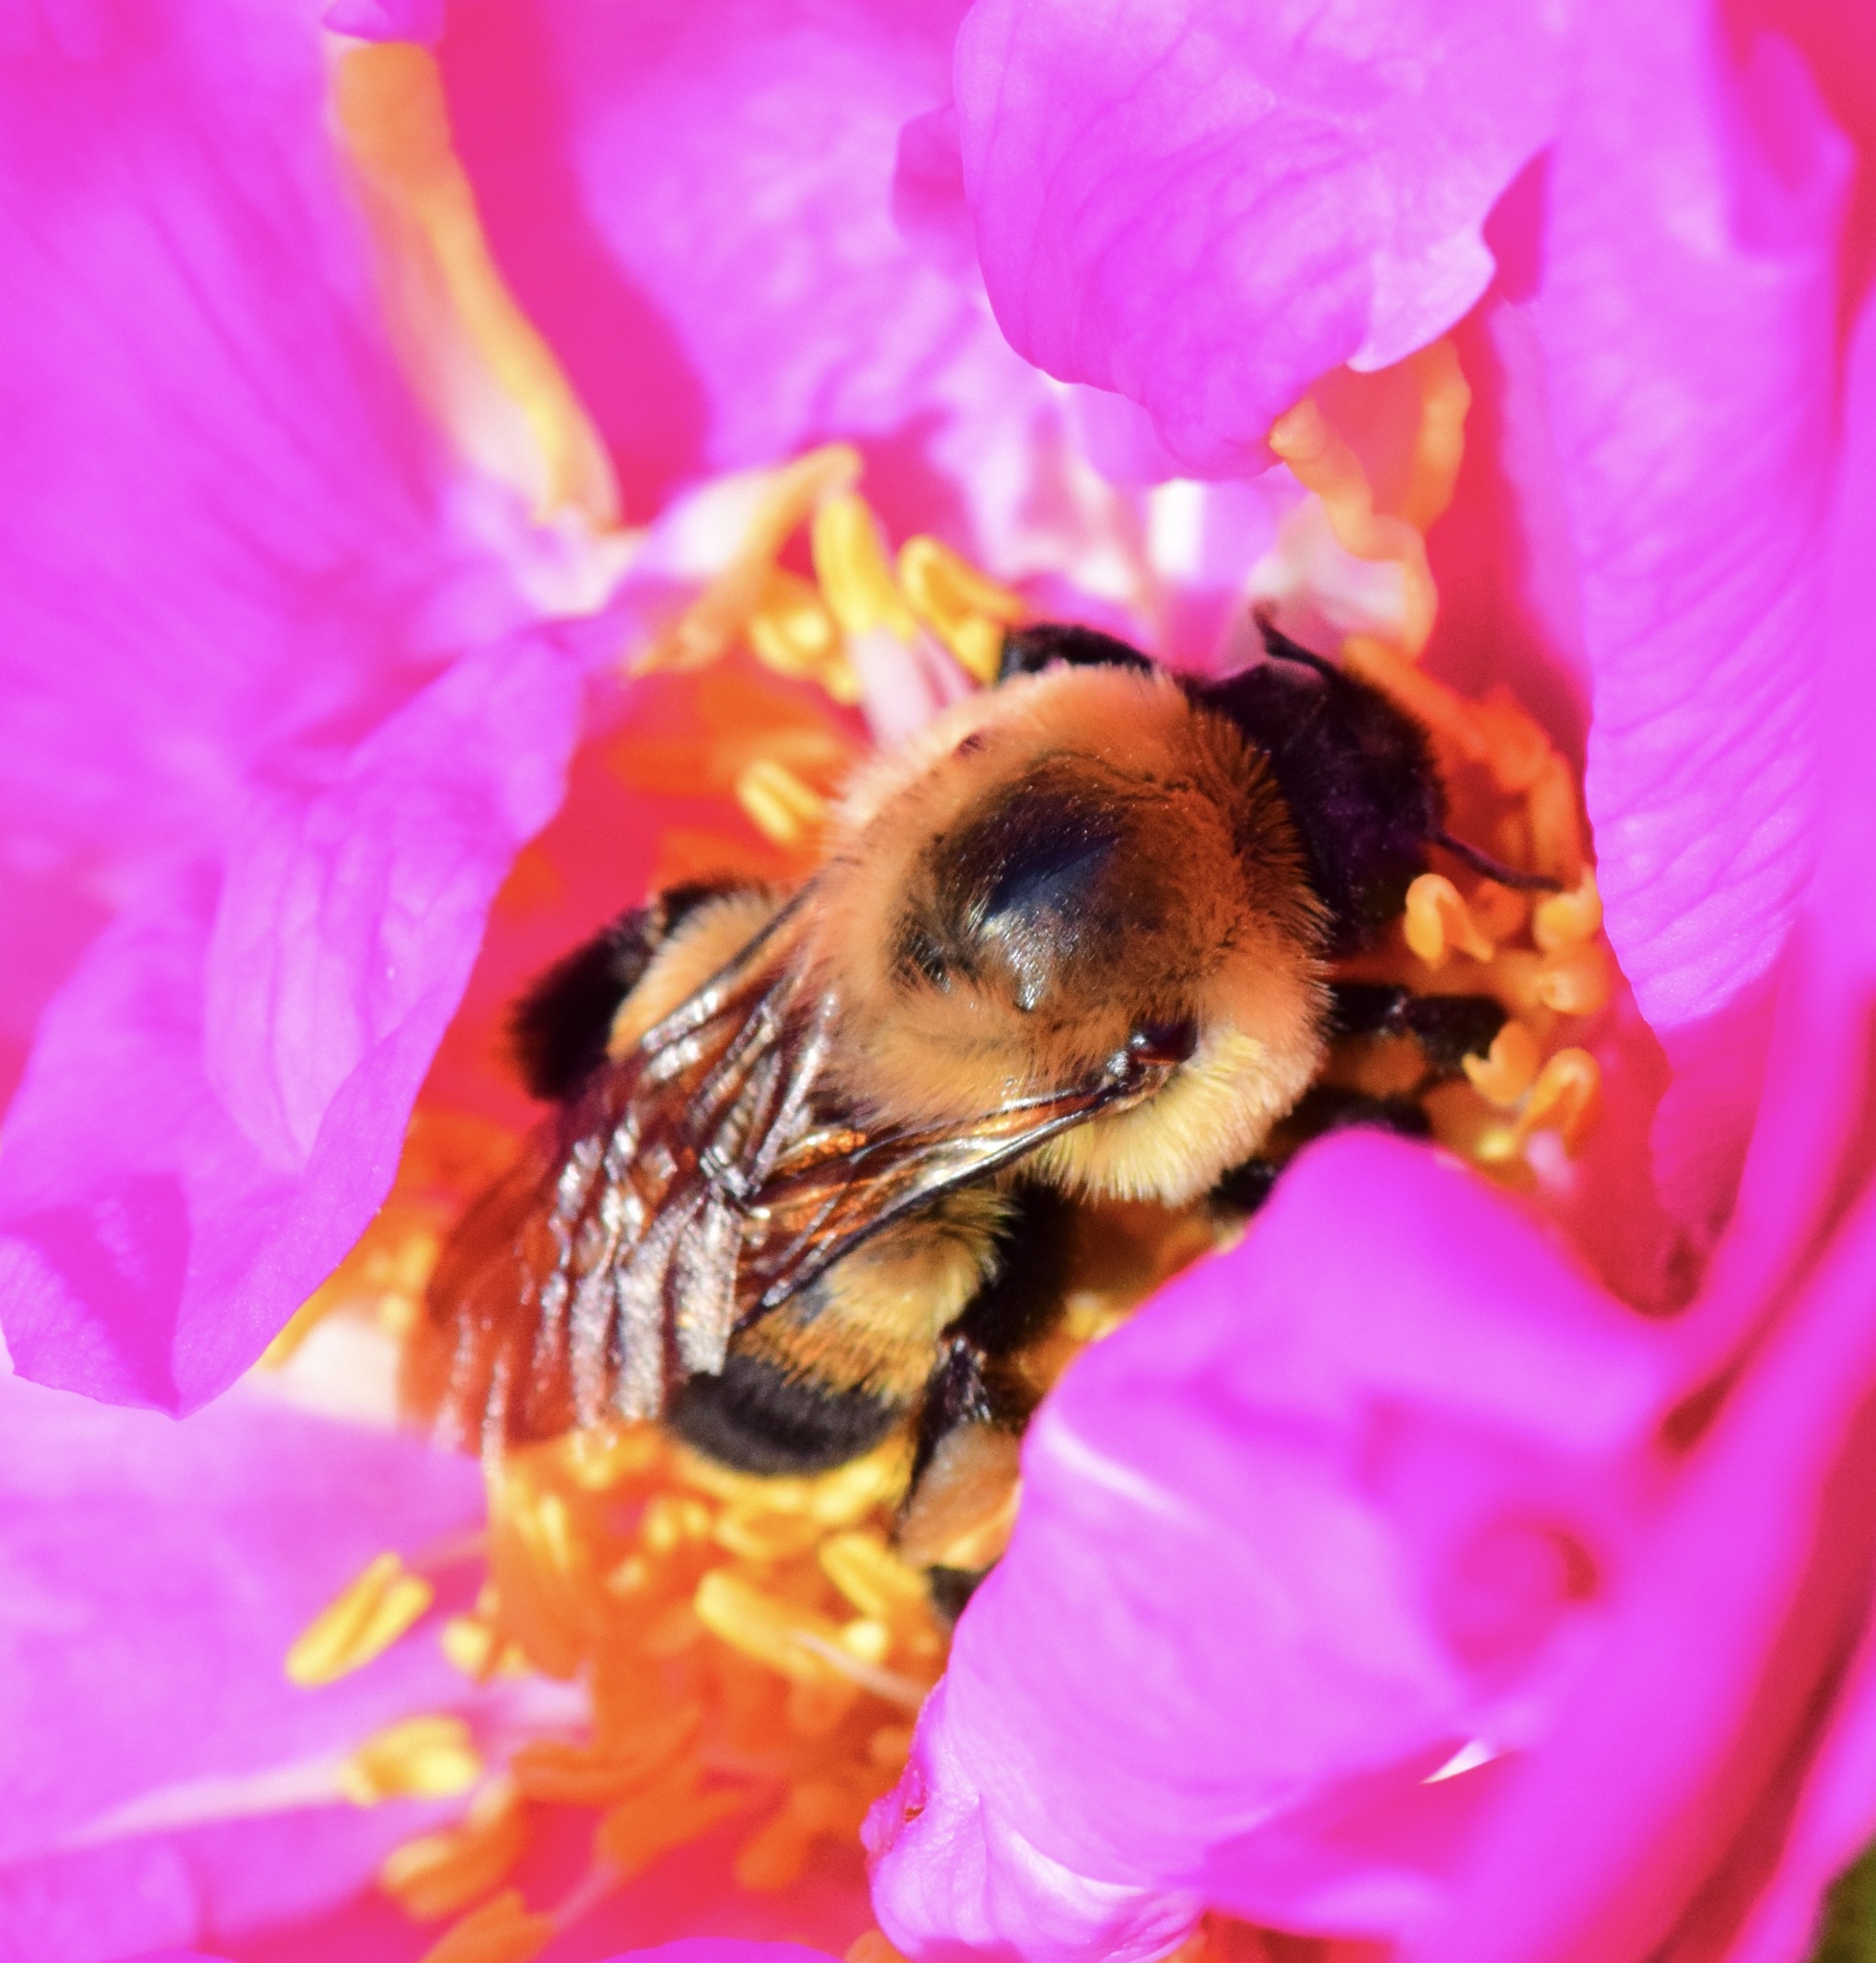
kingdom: Animalia
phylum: Arthropoda
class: Insecta
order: Hymenoptera
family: Apidae
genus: Bombus
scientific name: Bombus griseocollis
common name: Brown-belted bumble bee
